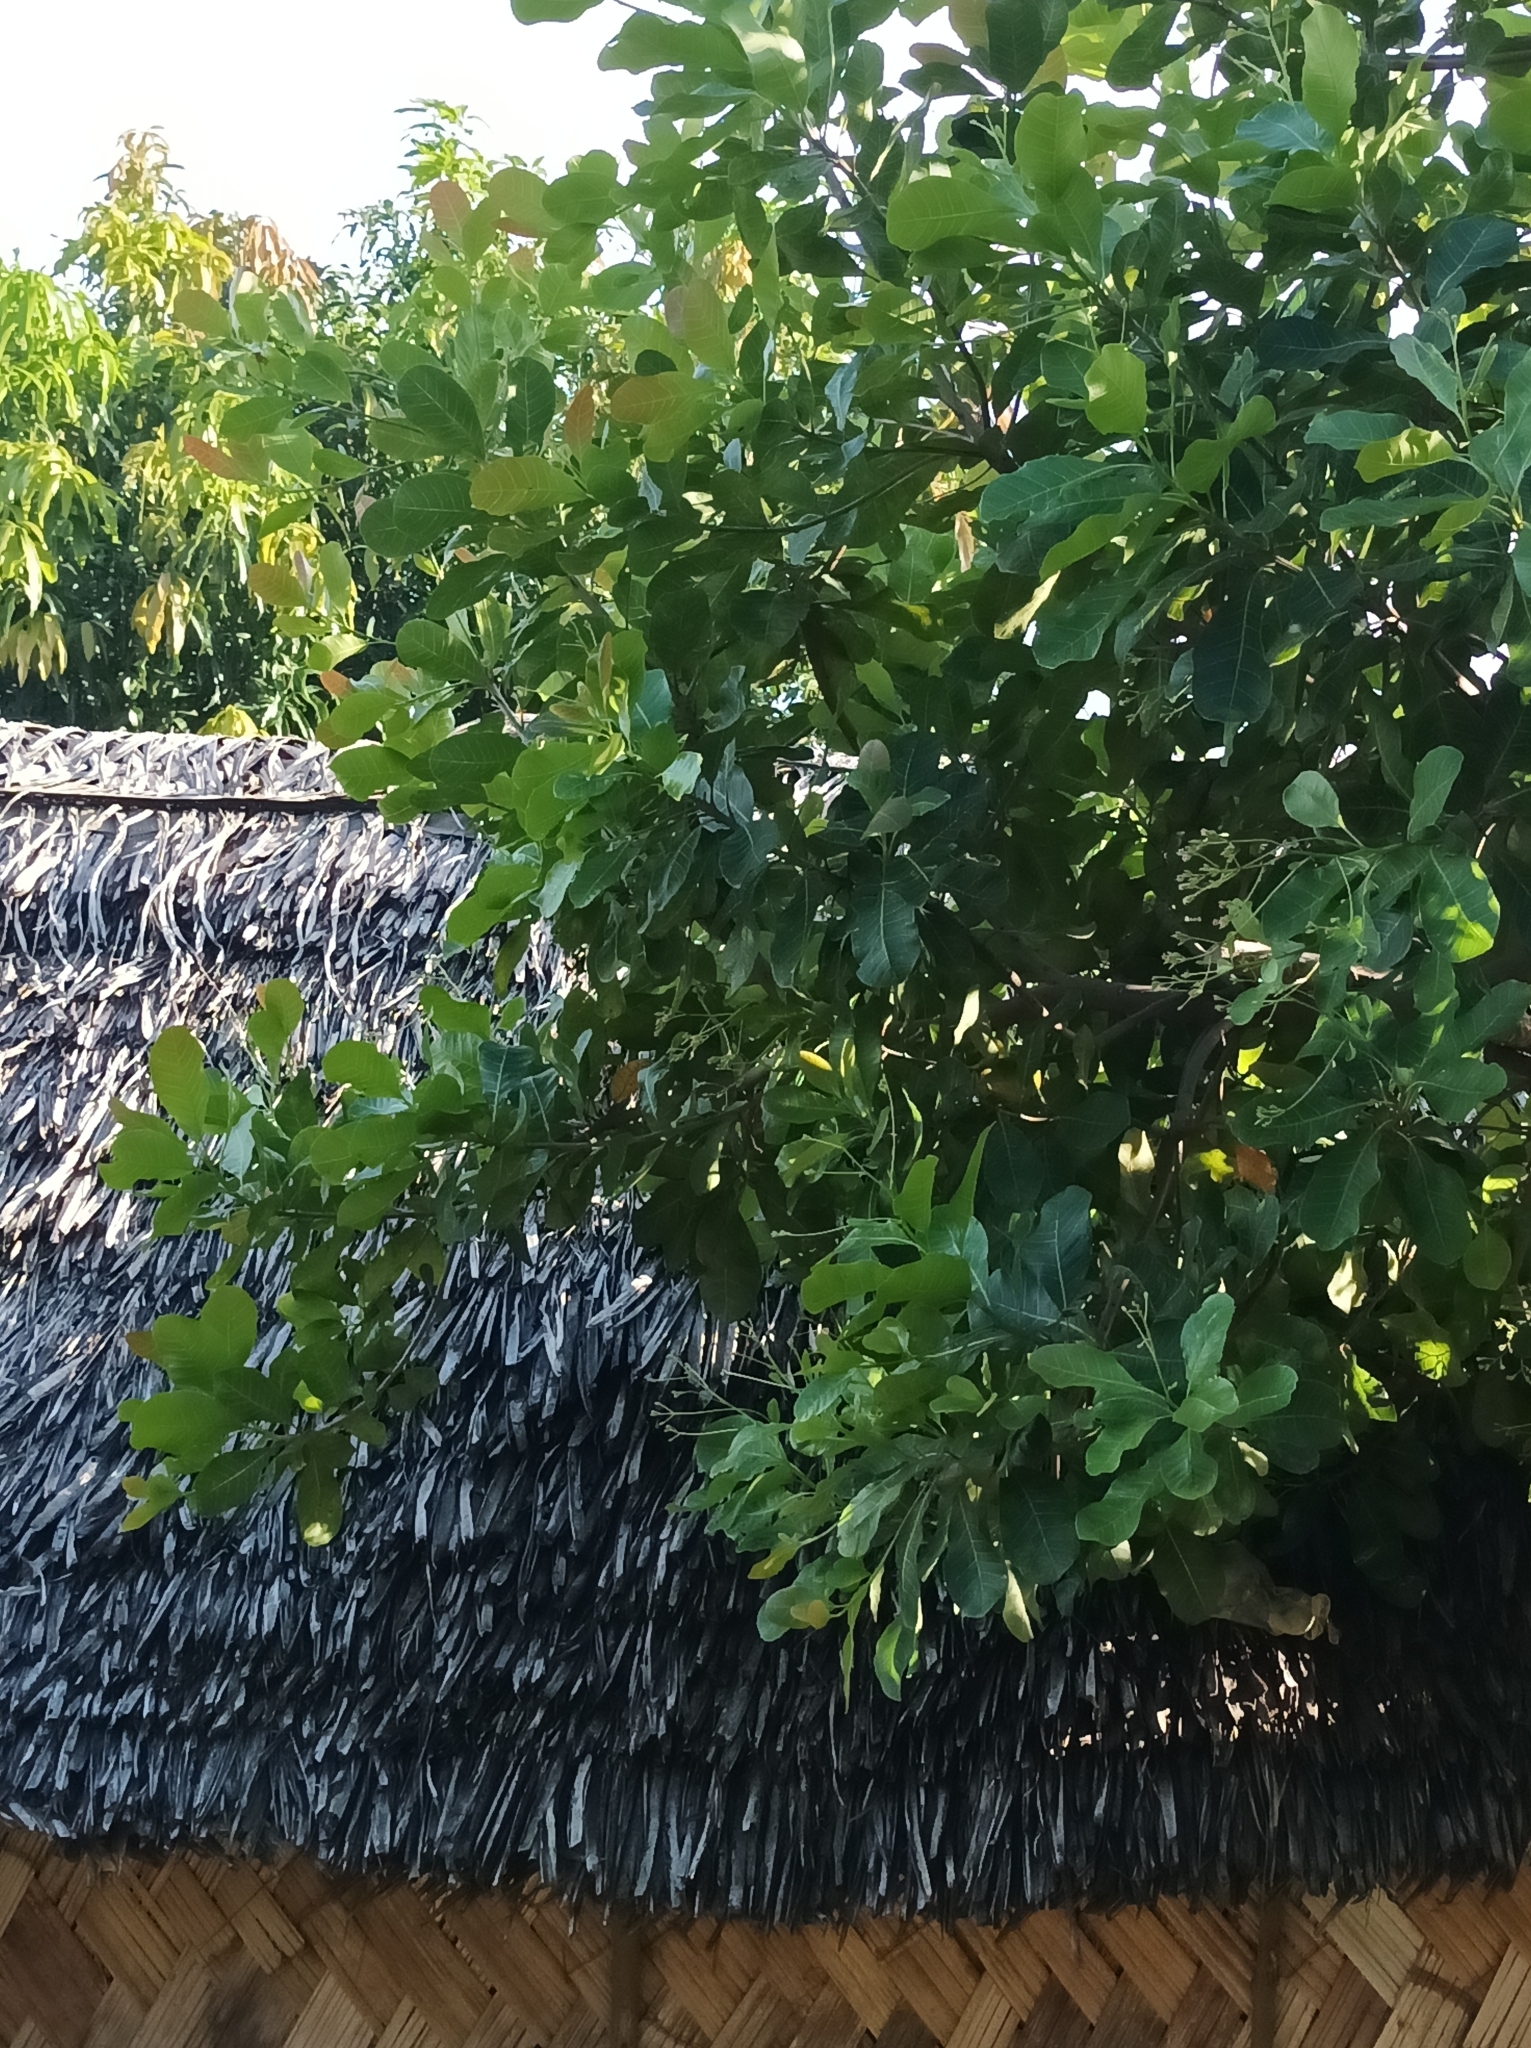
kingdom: Plantae
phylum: Tracheophyta
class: Magnoliopsida
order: Sapindales
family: Anacardiaceae
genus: Anacardium
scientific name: Anacardium occidentale
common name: Cashew
